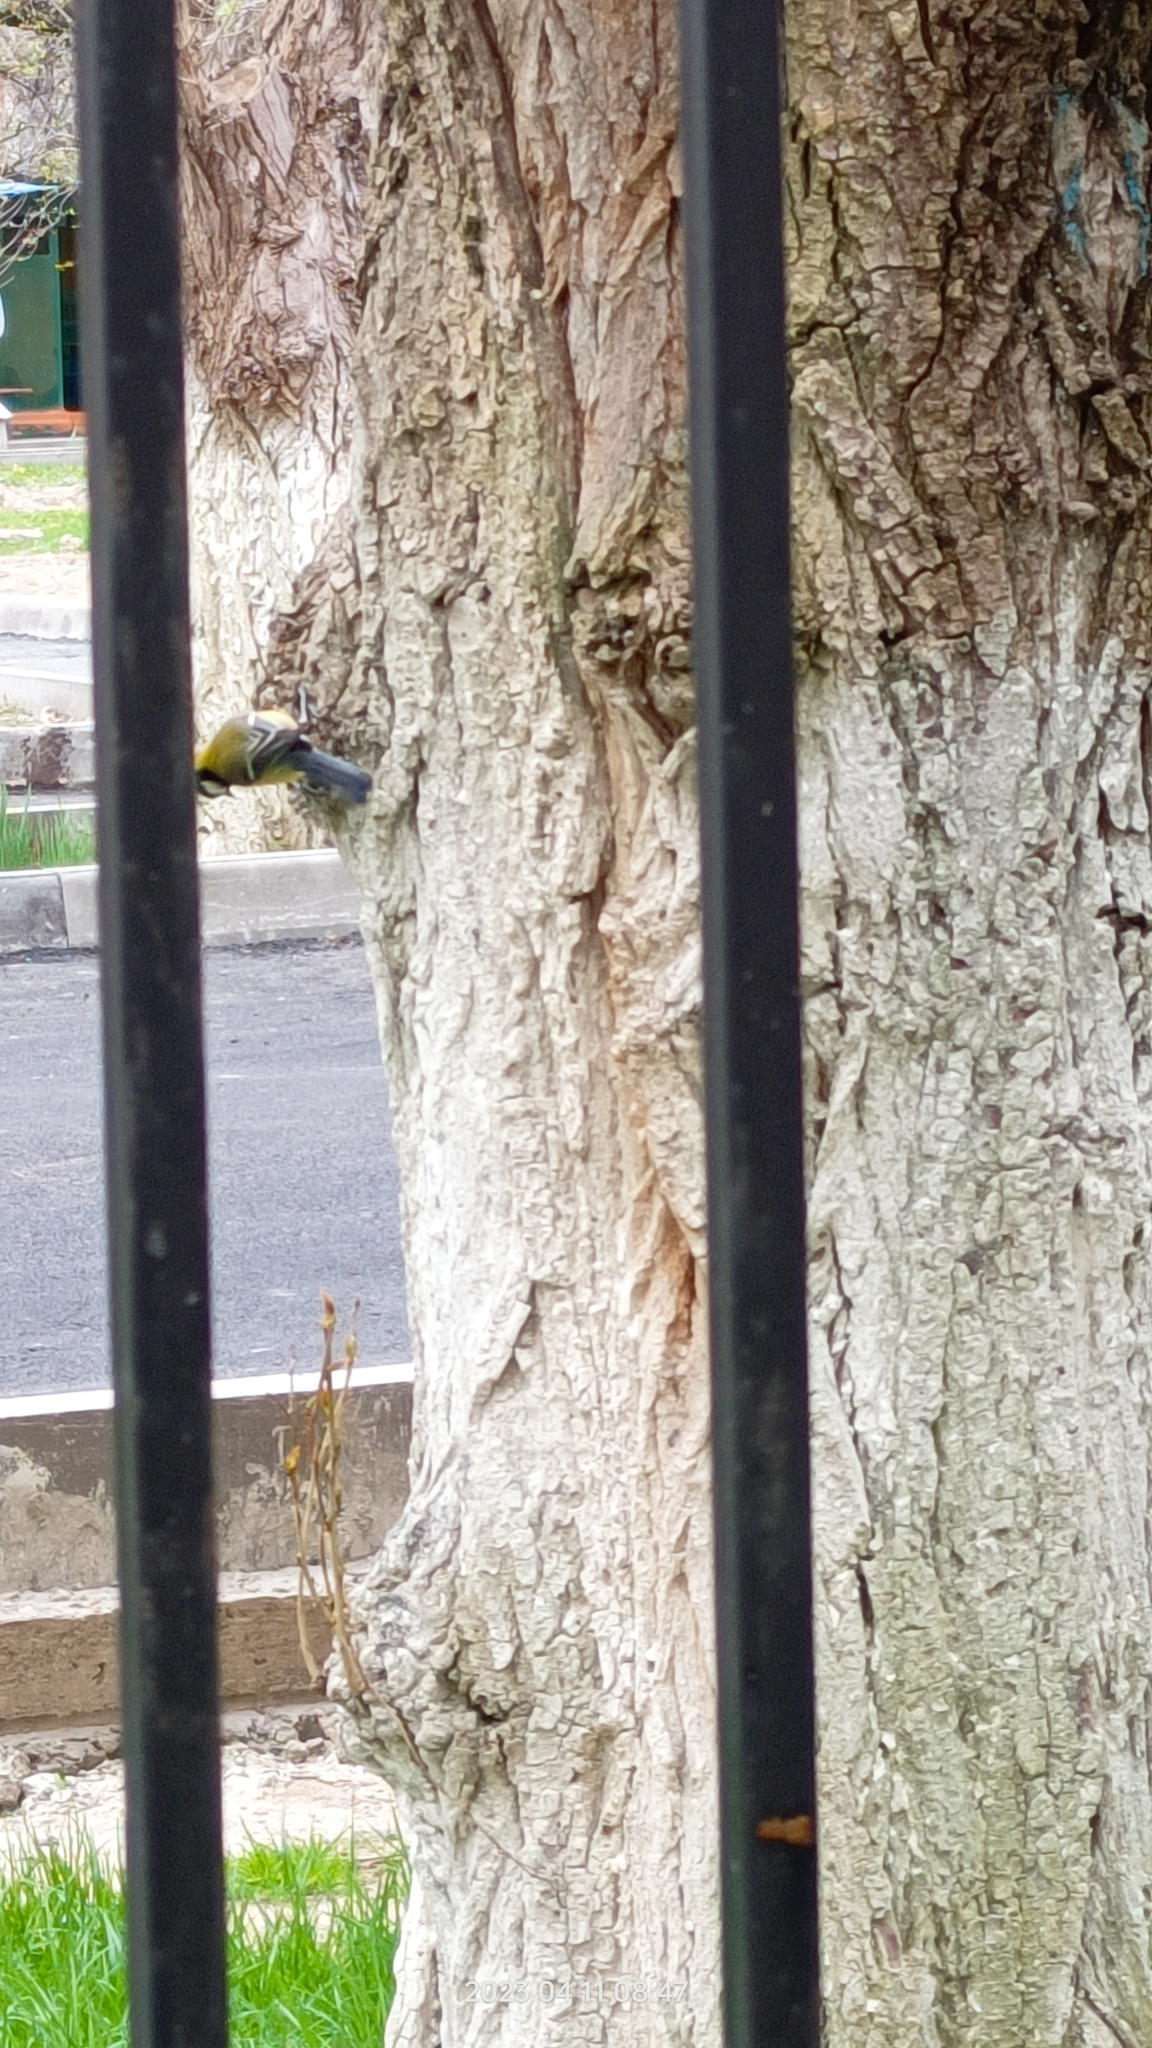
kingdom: Animalia
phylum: Chordata
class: Aves
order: Passeriformes
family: Paridae
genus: Parus
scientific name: Parus major
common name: Great tit
